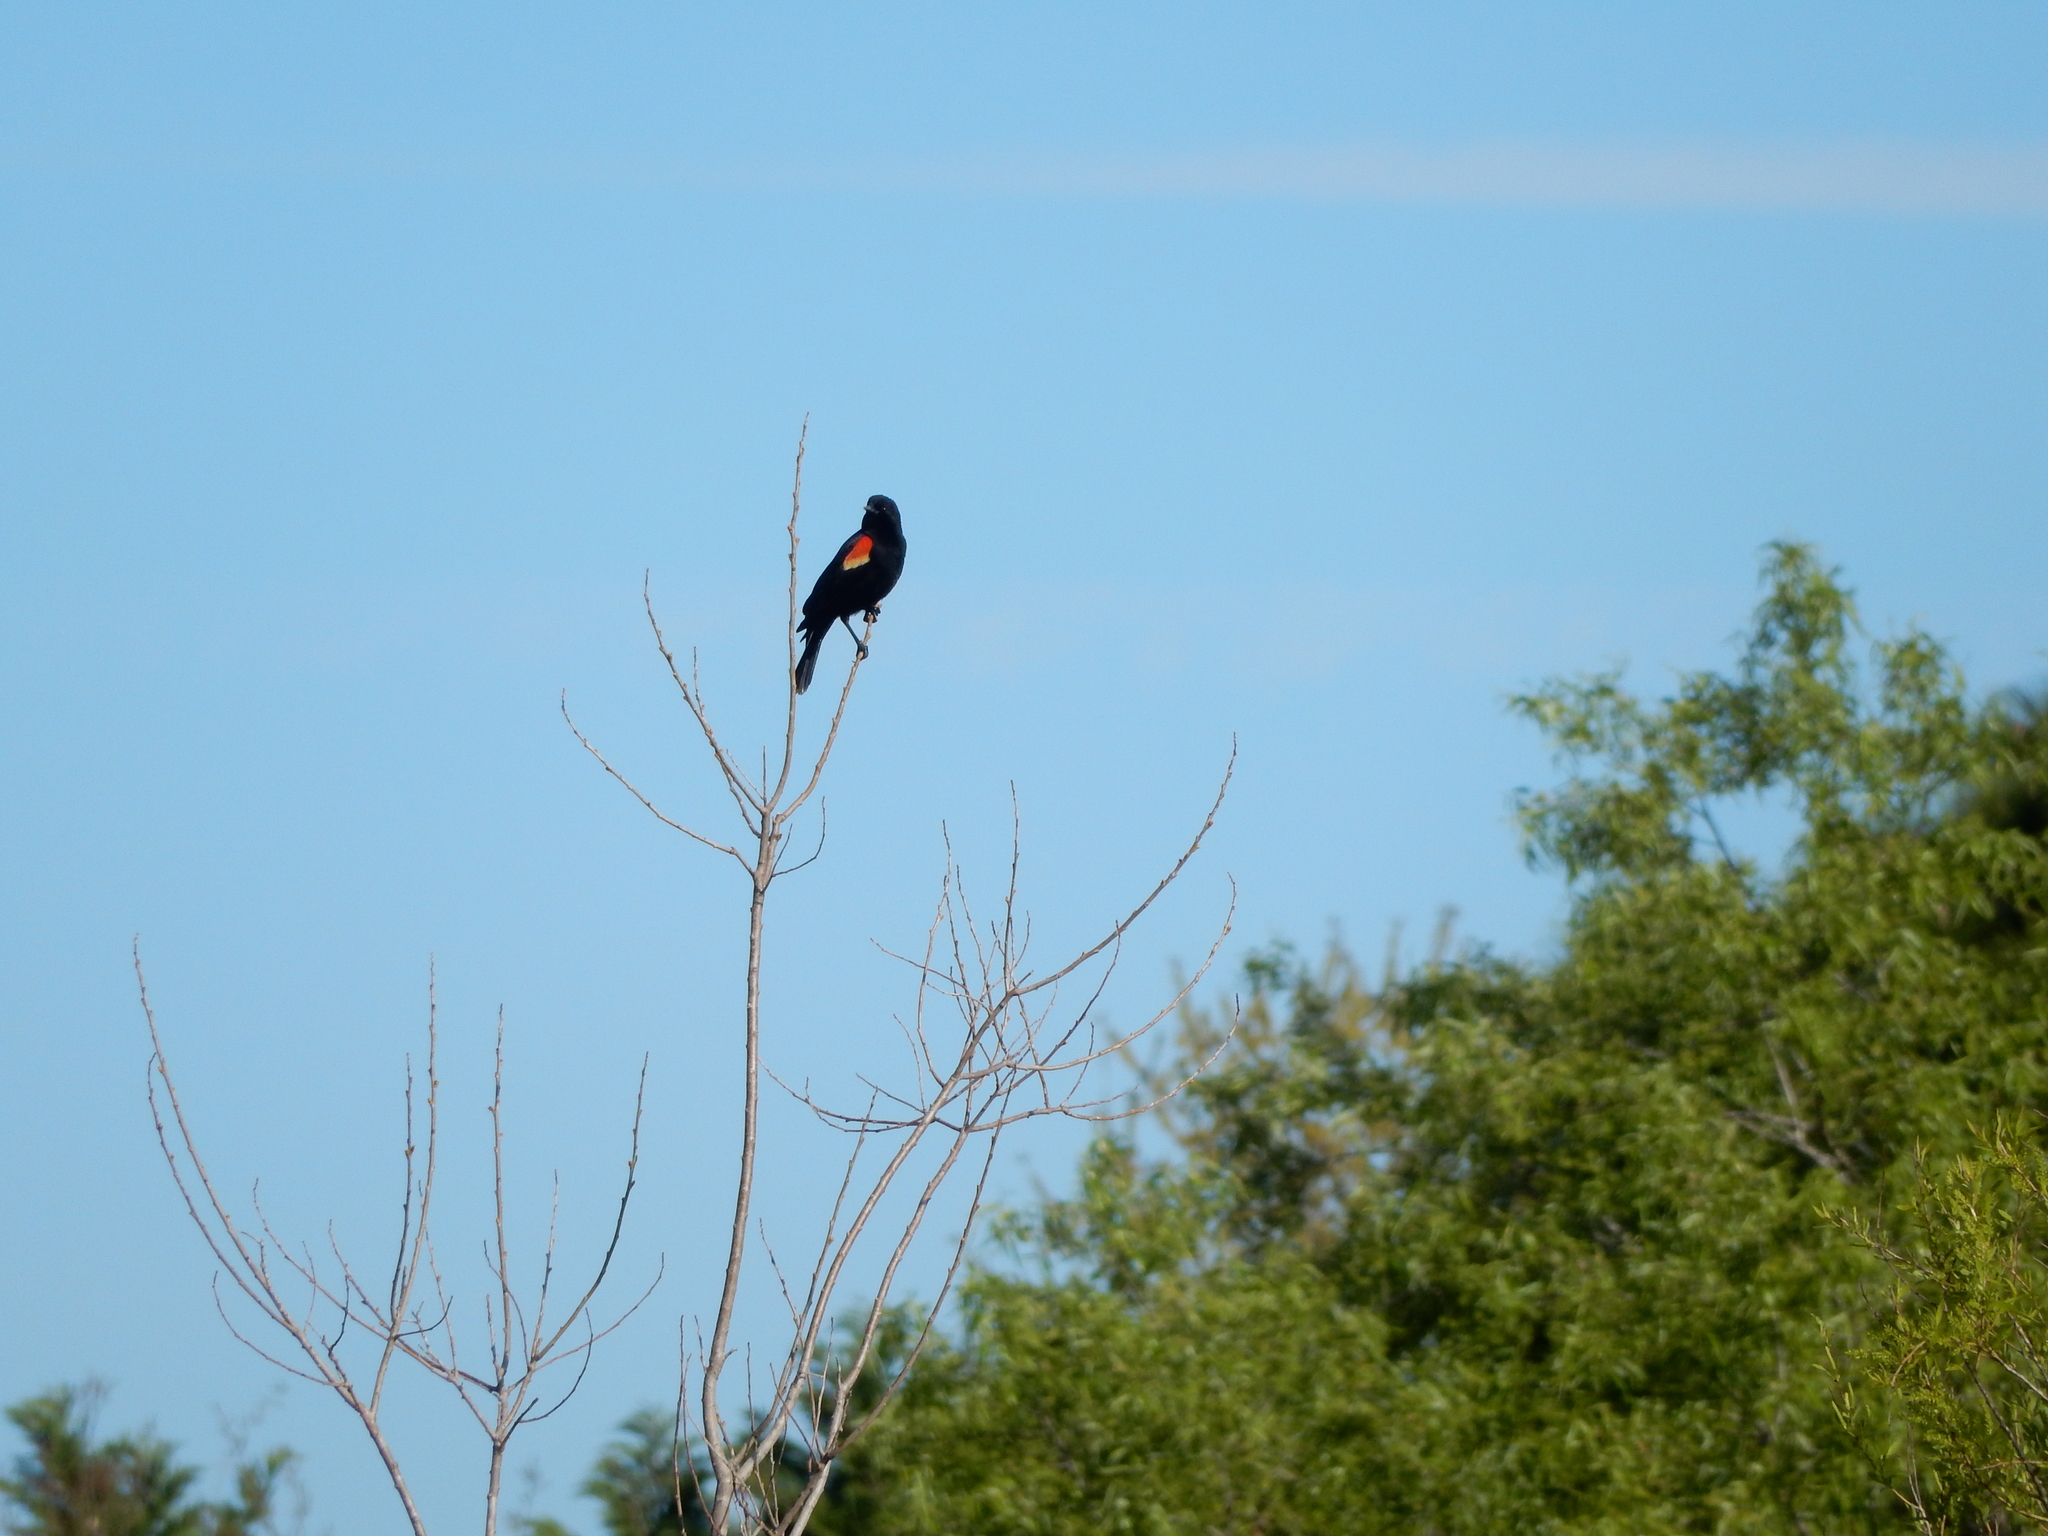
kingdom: Animalia
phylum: Chordata
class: Aves
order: Passeriformes
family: Icteridae
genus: Agelaius
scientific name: Agelaius phoeniceus
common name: Red-winged blackbird
